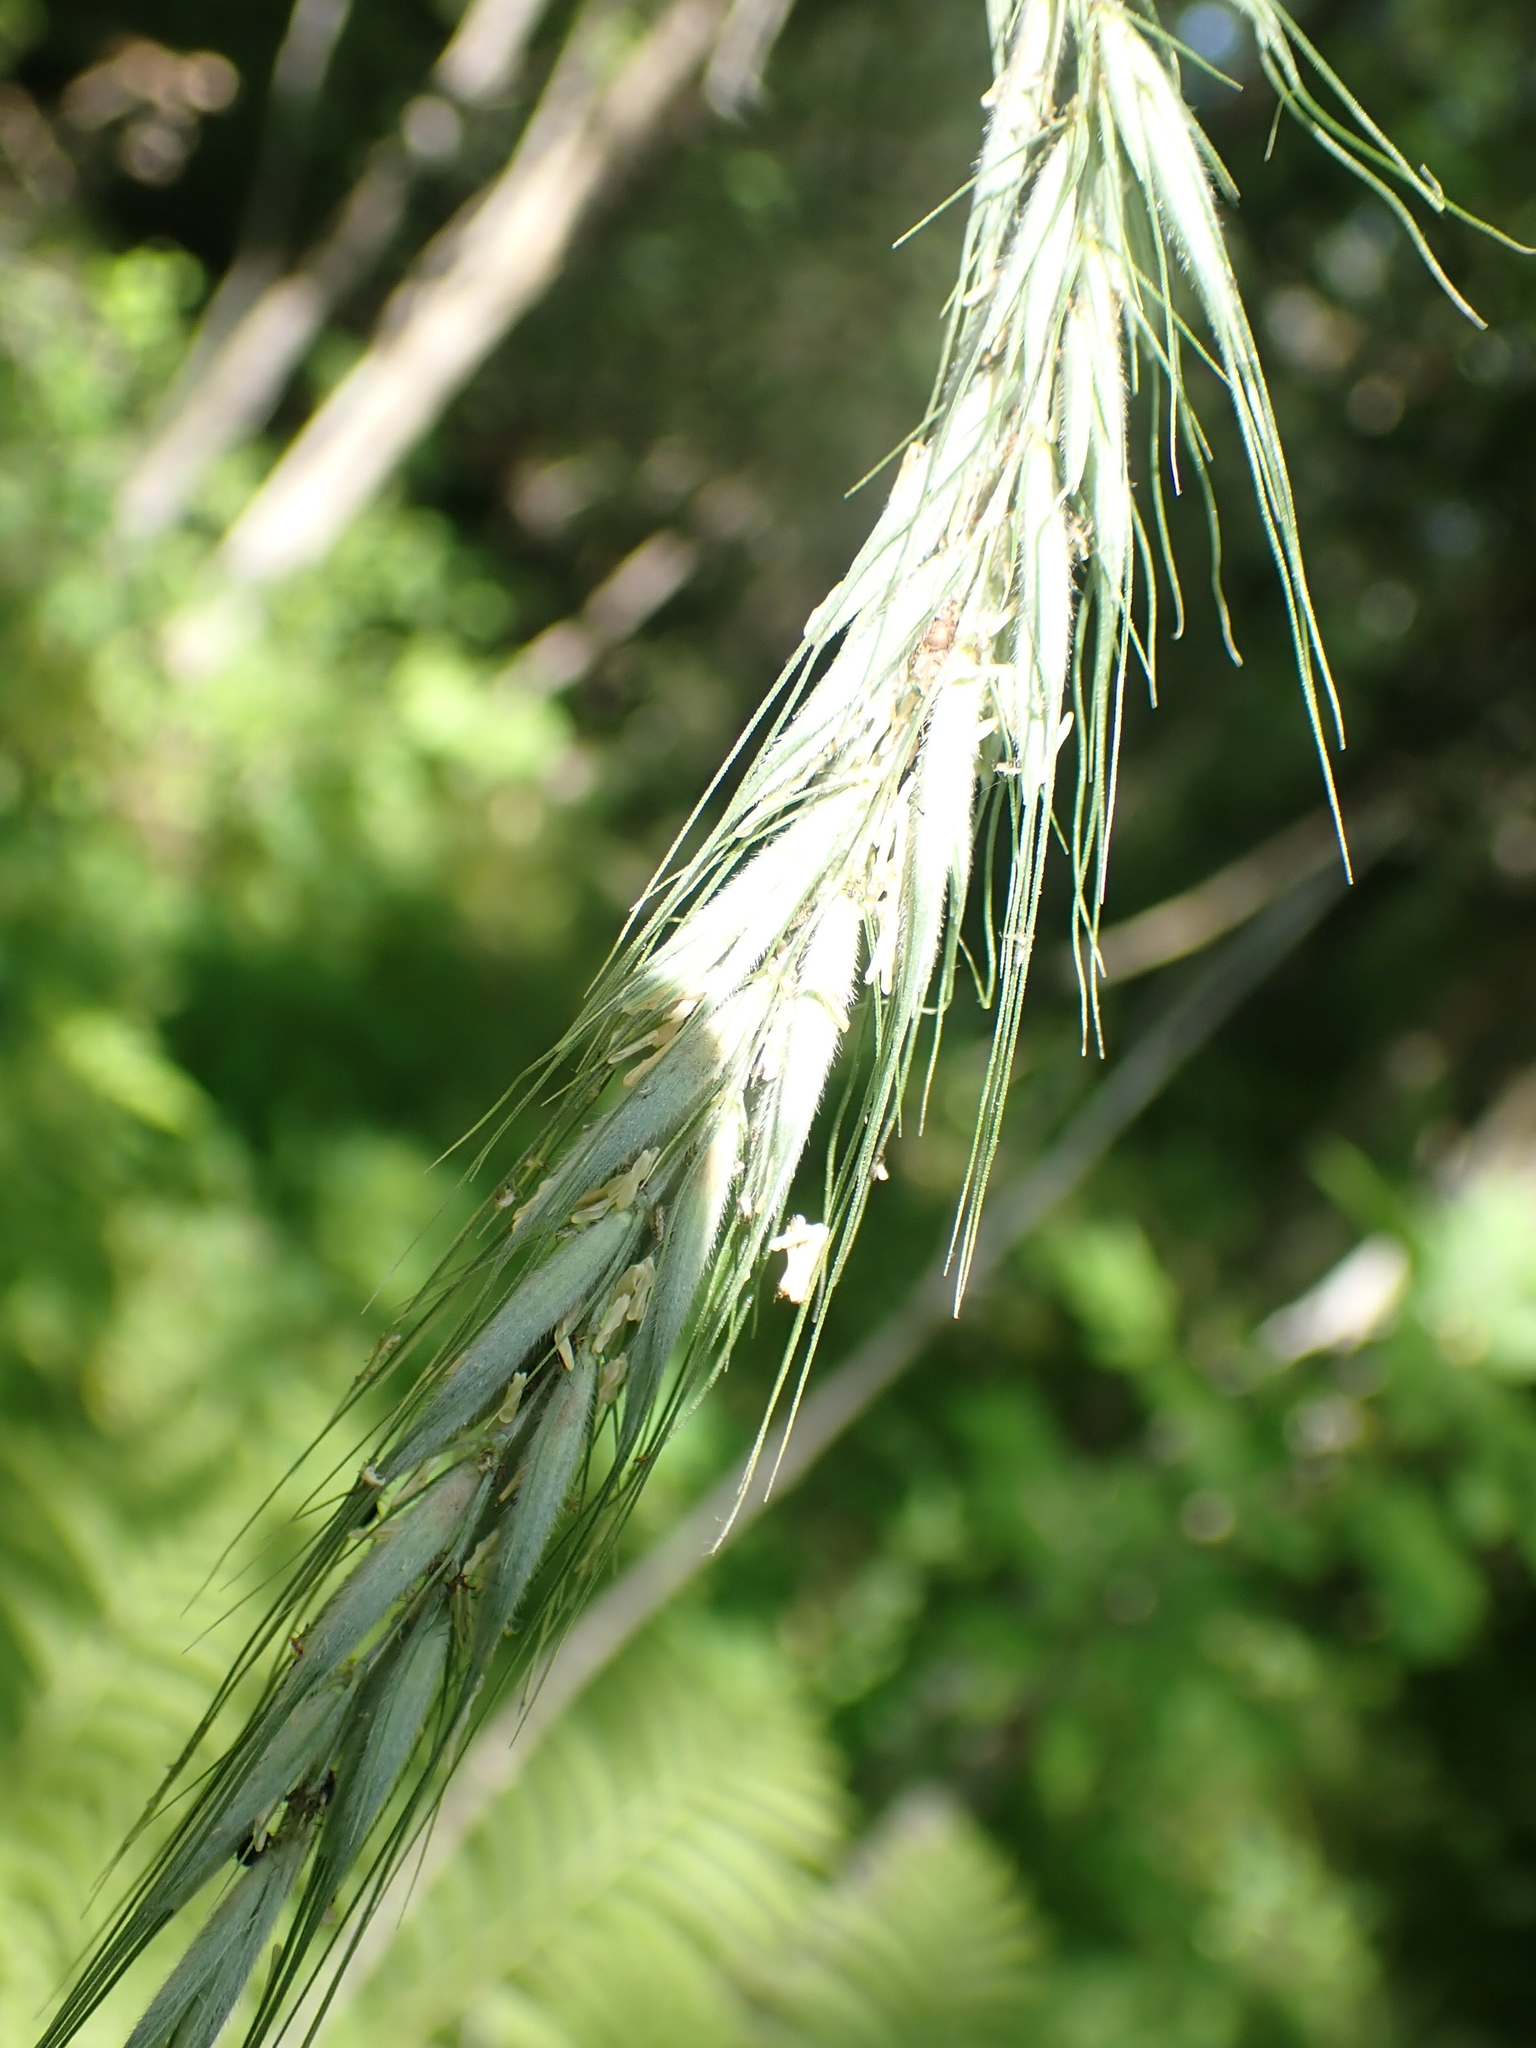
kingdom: Plantae
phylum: Tracheophyta
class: Liliopsida
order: Poales
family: Poaceae
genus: Elymus
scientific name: Elymus canadensis
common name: Canada wild rye
